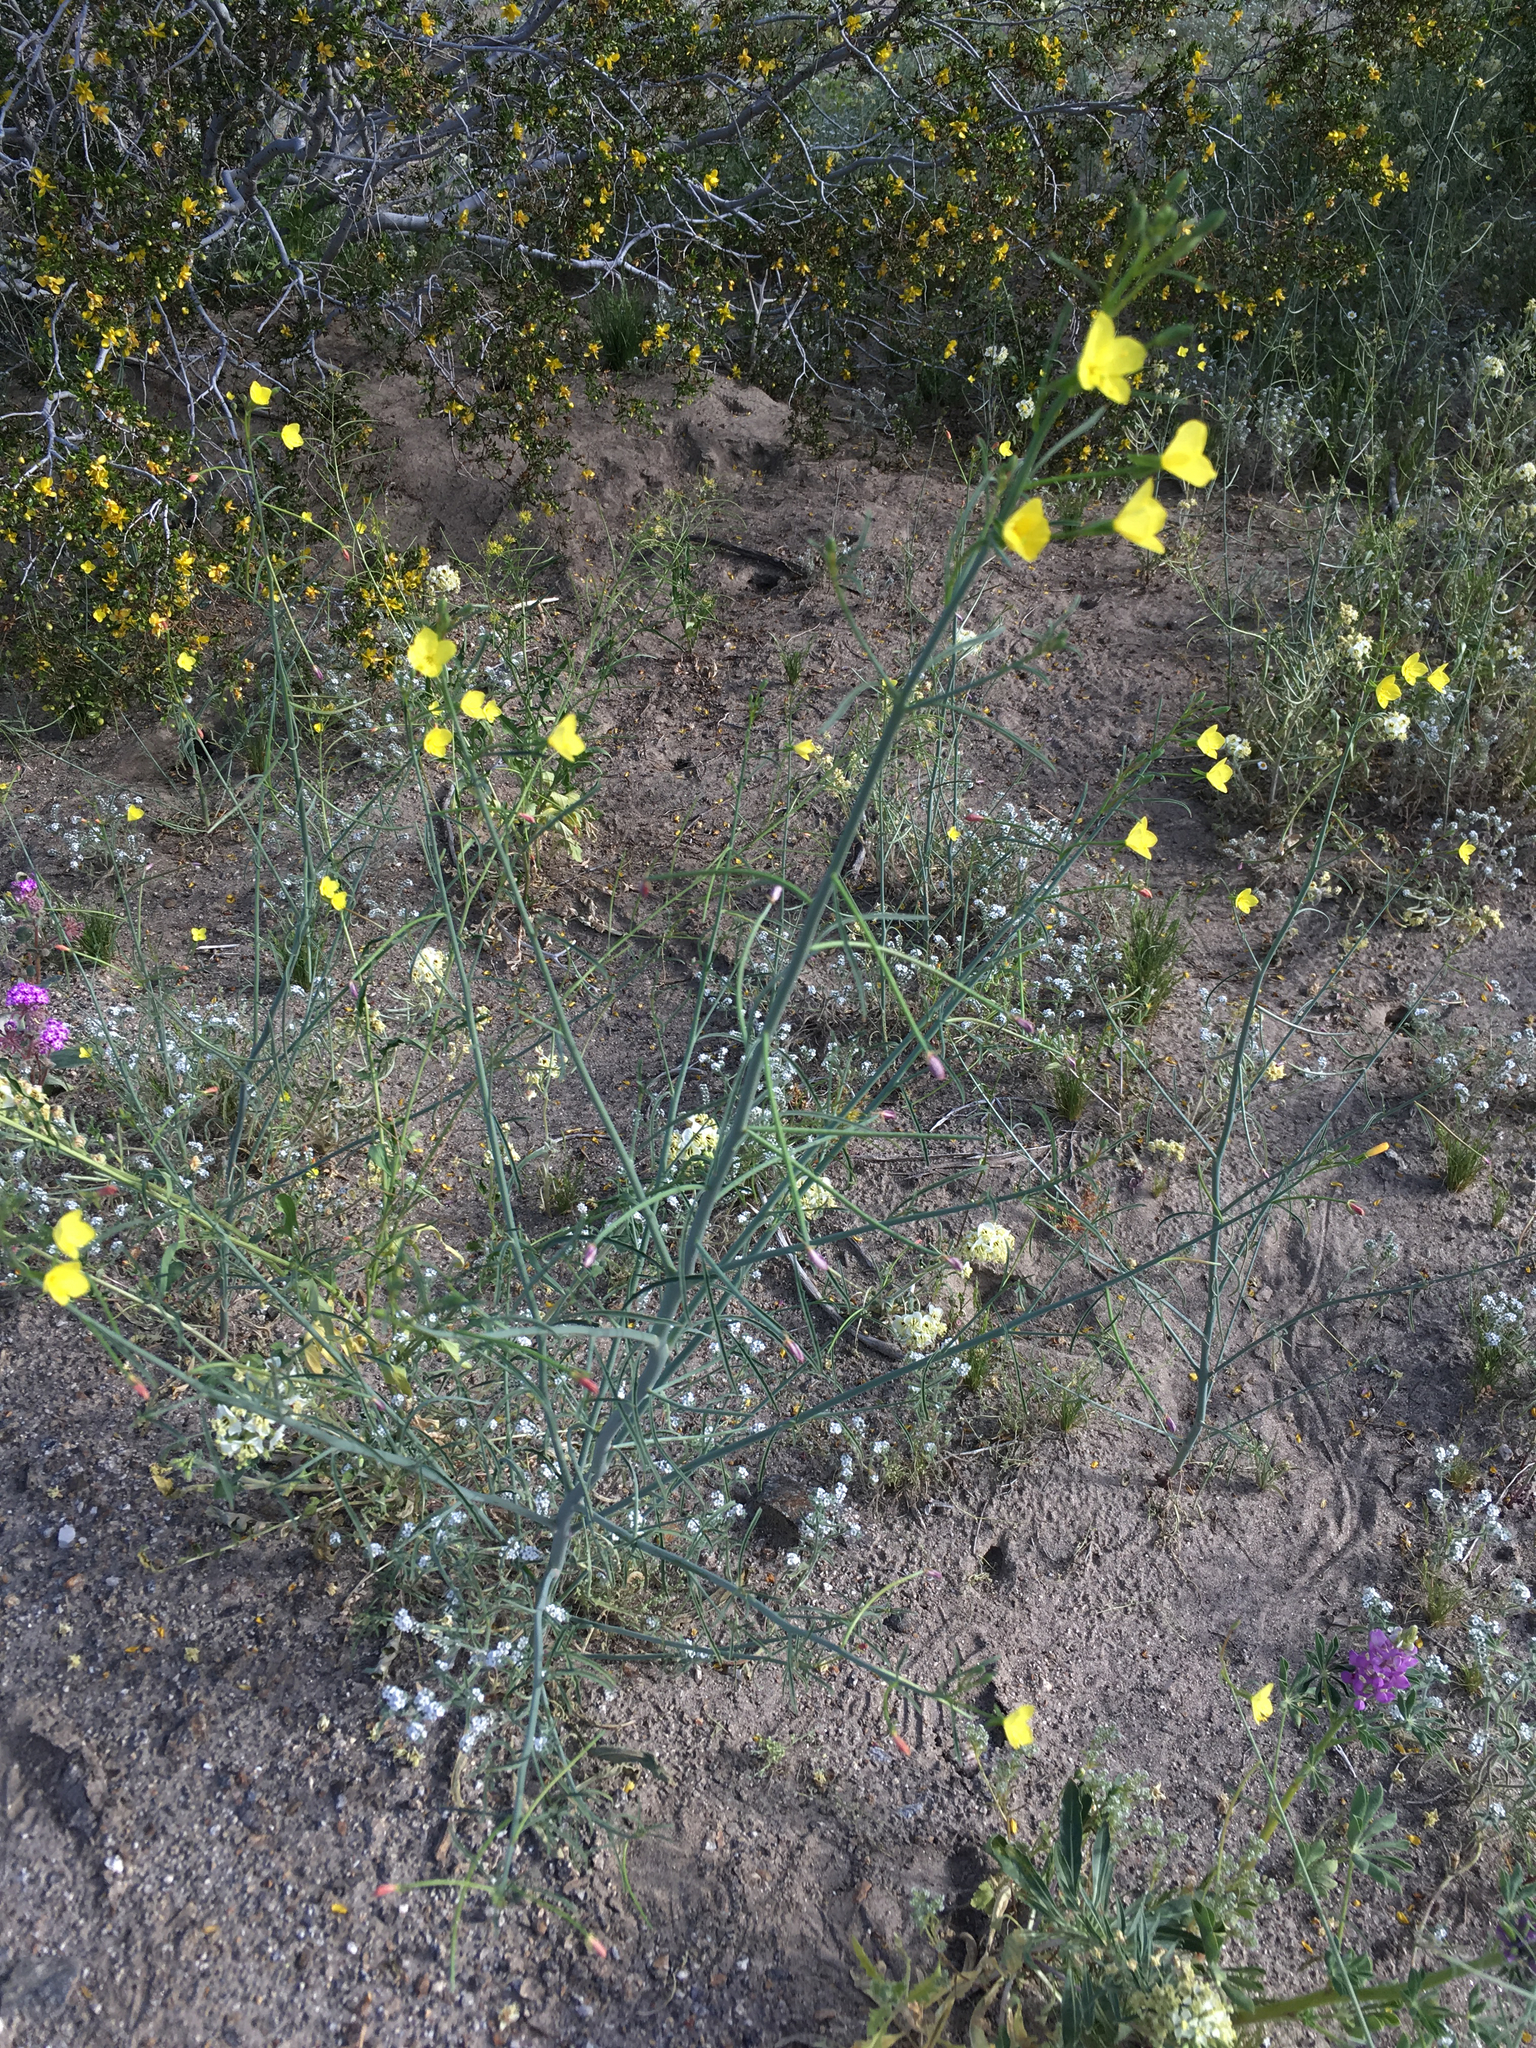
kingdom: Plantae
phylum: Tracheophyta
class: Magnoliopsida
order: Myrtales
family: Onagraceae
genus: Eulobus
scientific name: Eulobus californicus
